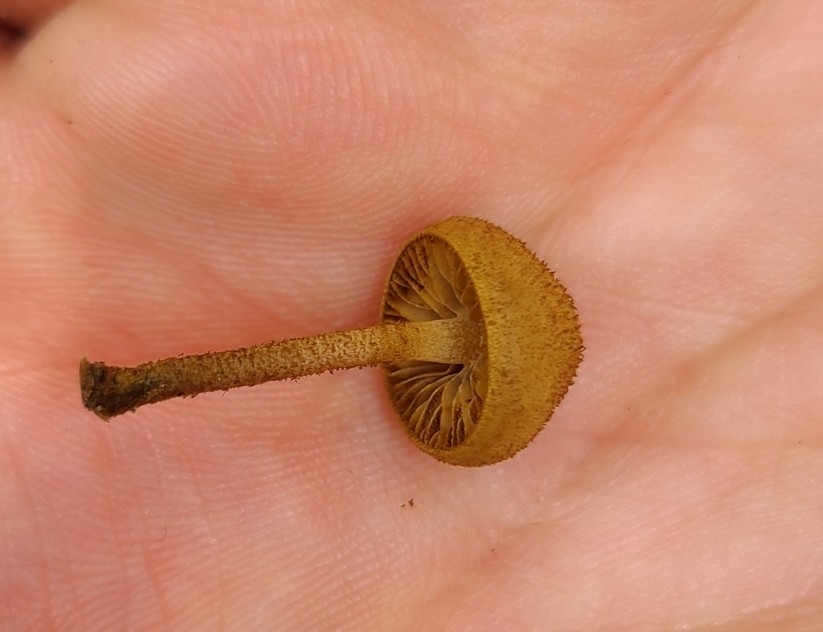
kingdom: Fungi
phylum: Basidiomycota
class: Agaricomycetes
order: Agaricales
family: Tubariaceae
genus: Flammulaster
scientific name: Flammulaster ciliatus
